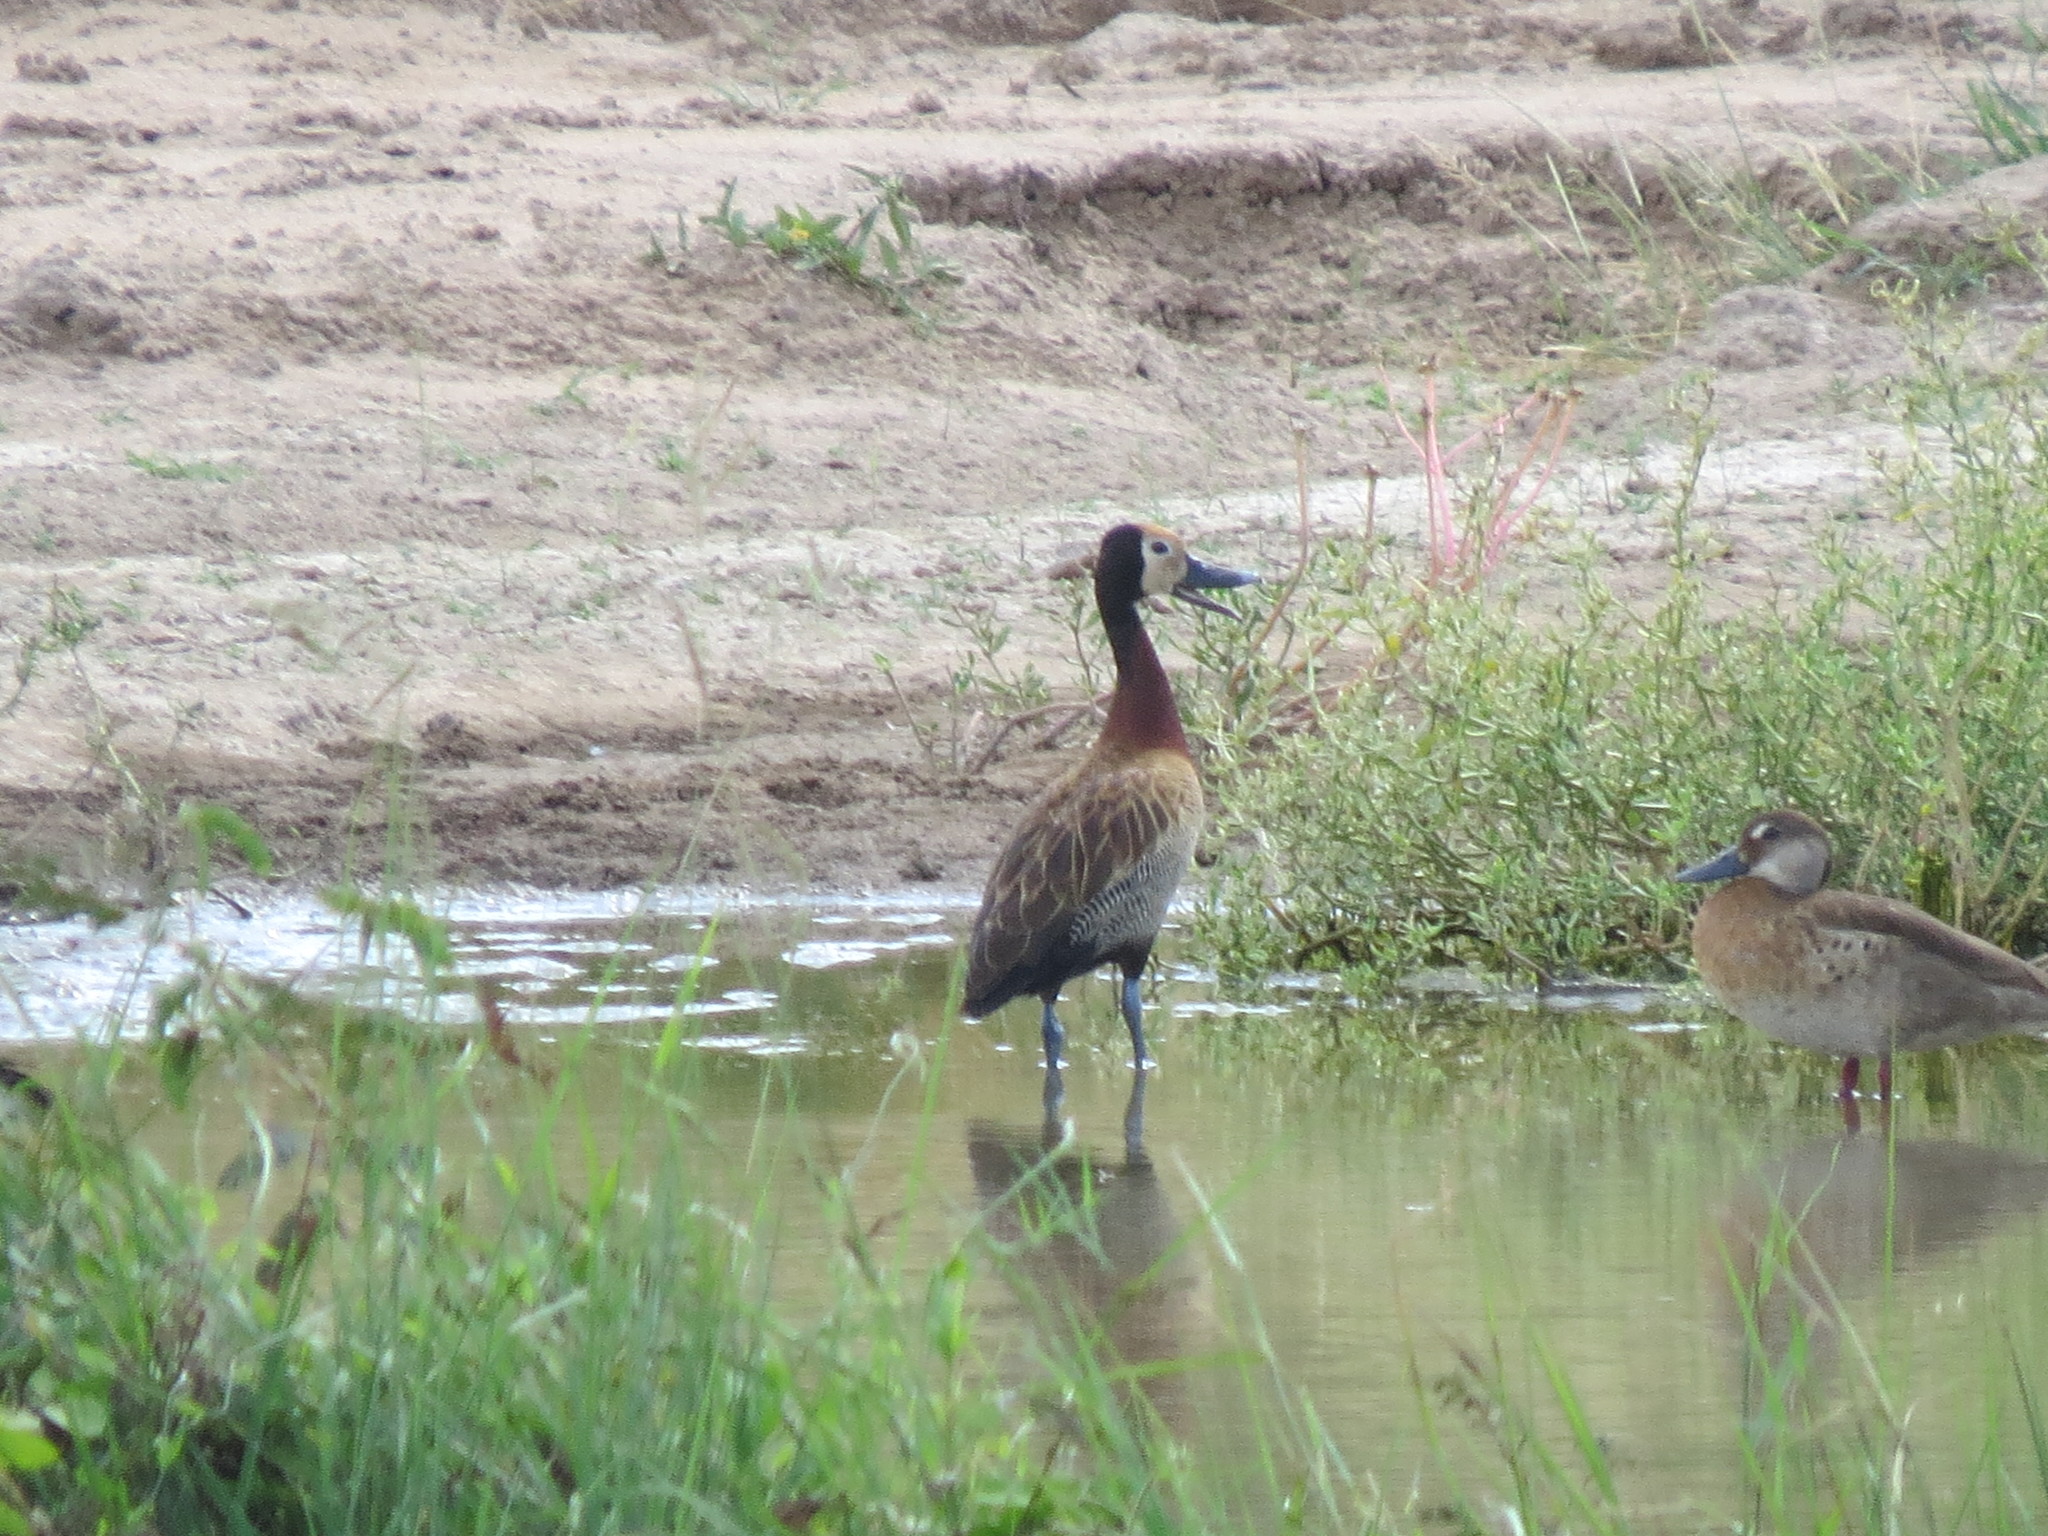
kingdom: Animalia
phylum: Chordata
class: Aves
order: Anseriformes
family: Anatidae
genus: Amazonetta
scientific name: Amazonetta brasiliensis
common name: Brazilian teal
